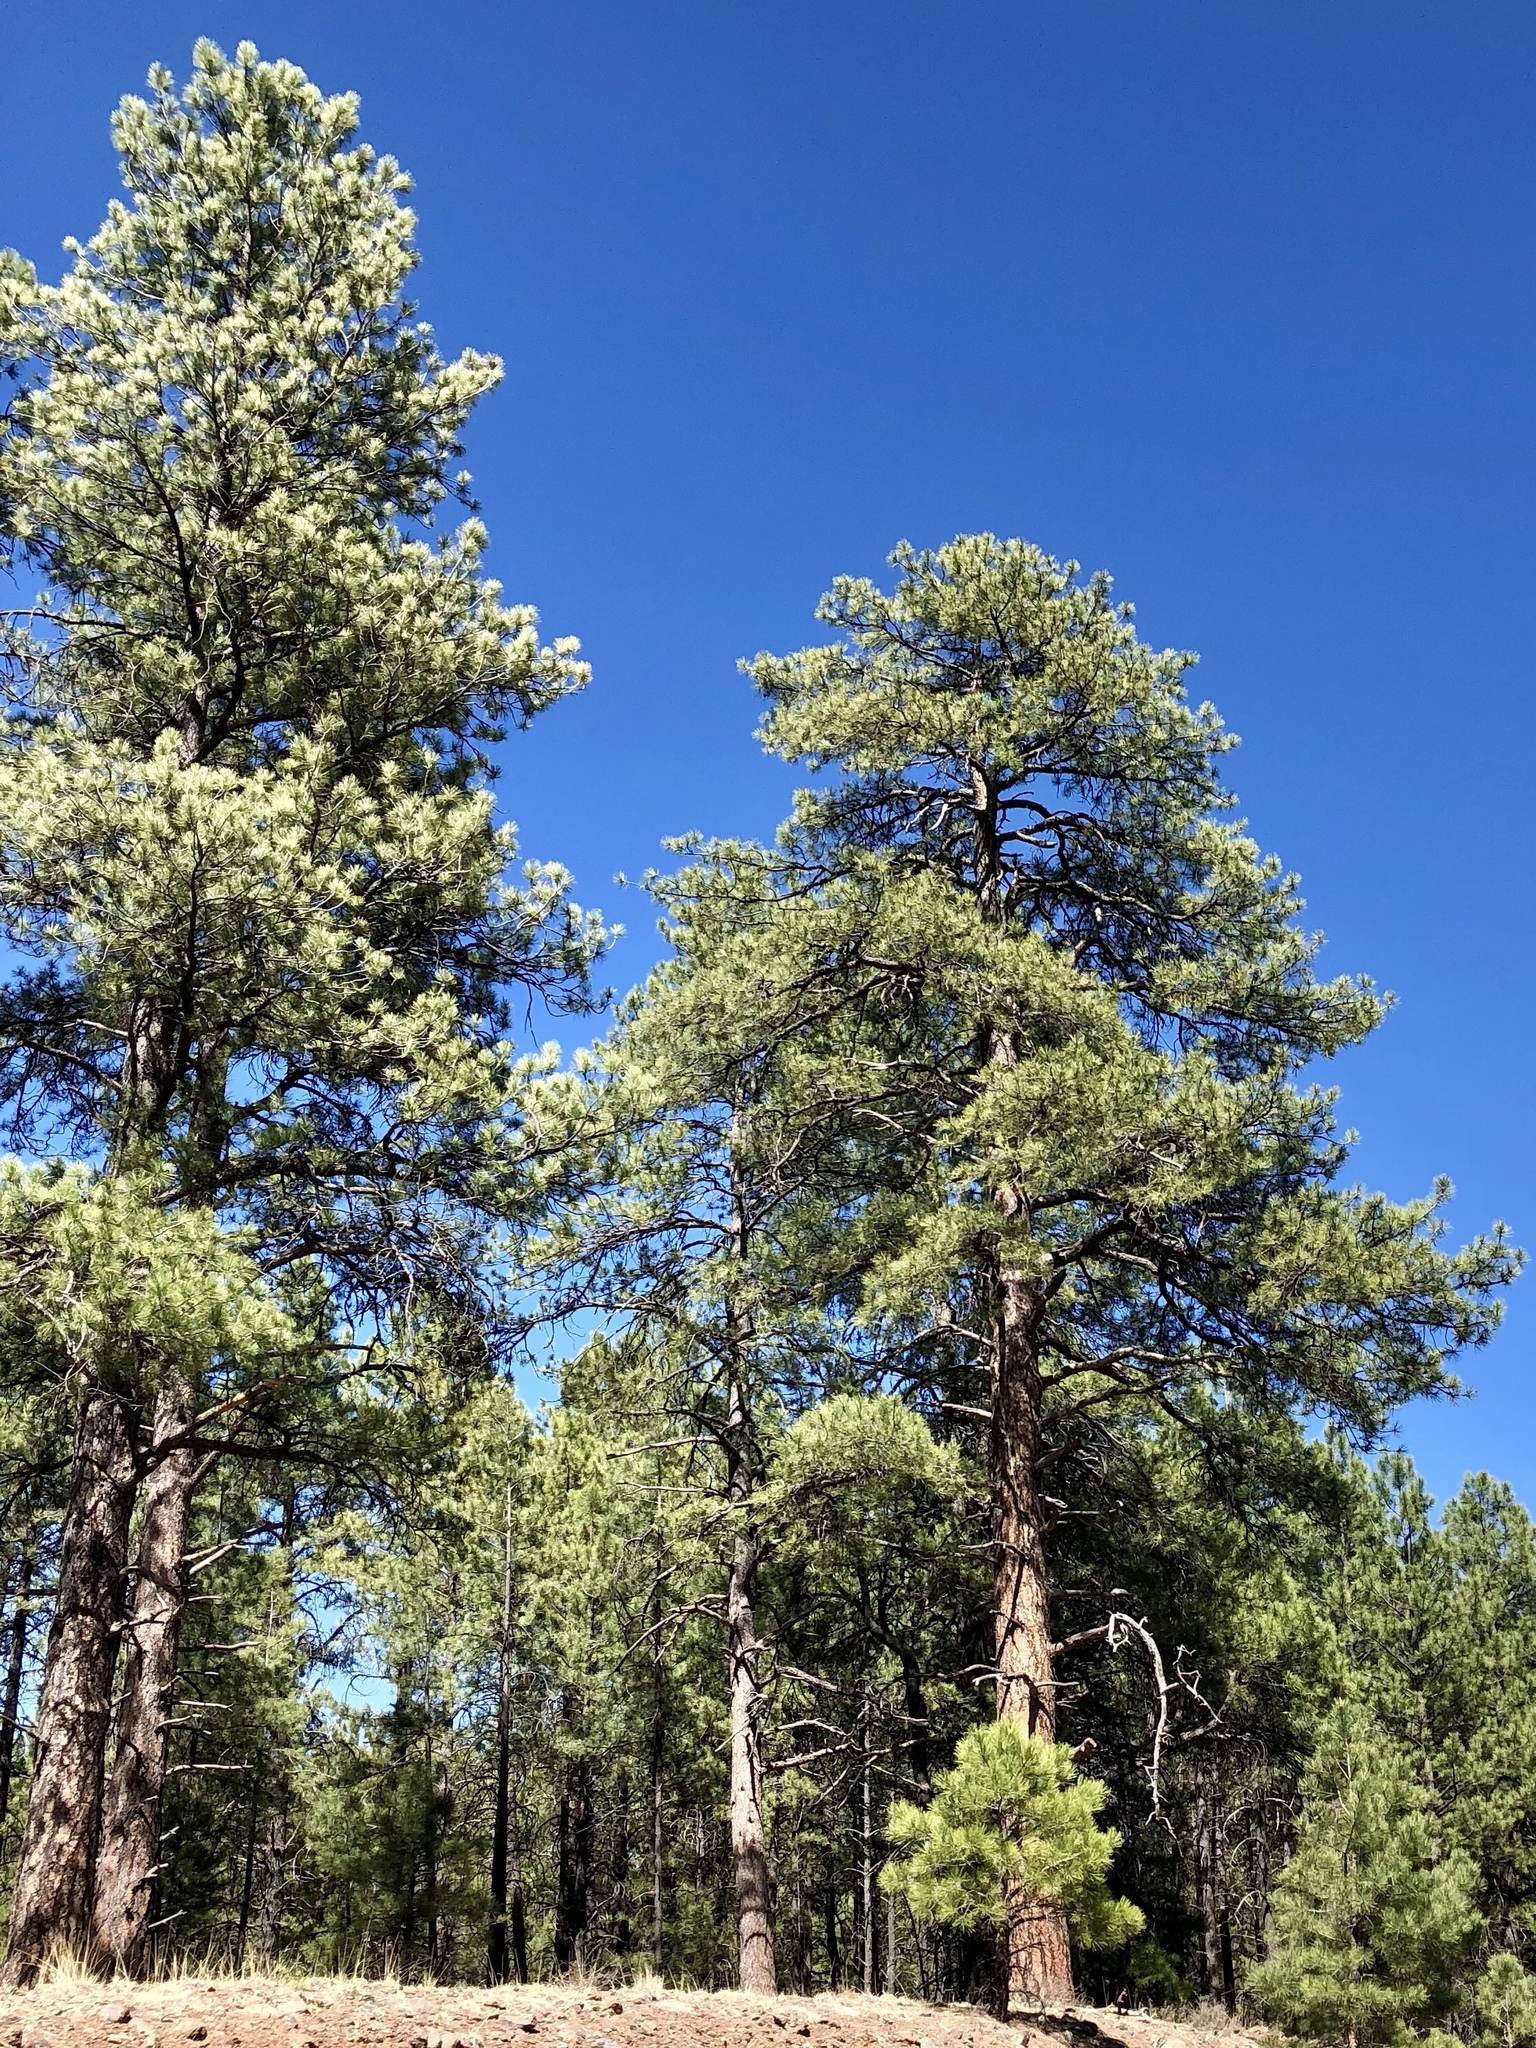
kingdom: Plantae
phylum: Tracheophyta
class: Pinopsida
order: Pinales
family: Pinaceae
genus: Pinus
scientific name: Pinus ponderosa
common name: Western yellow-pine
